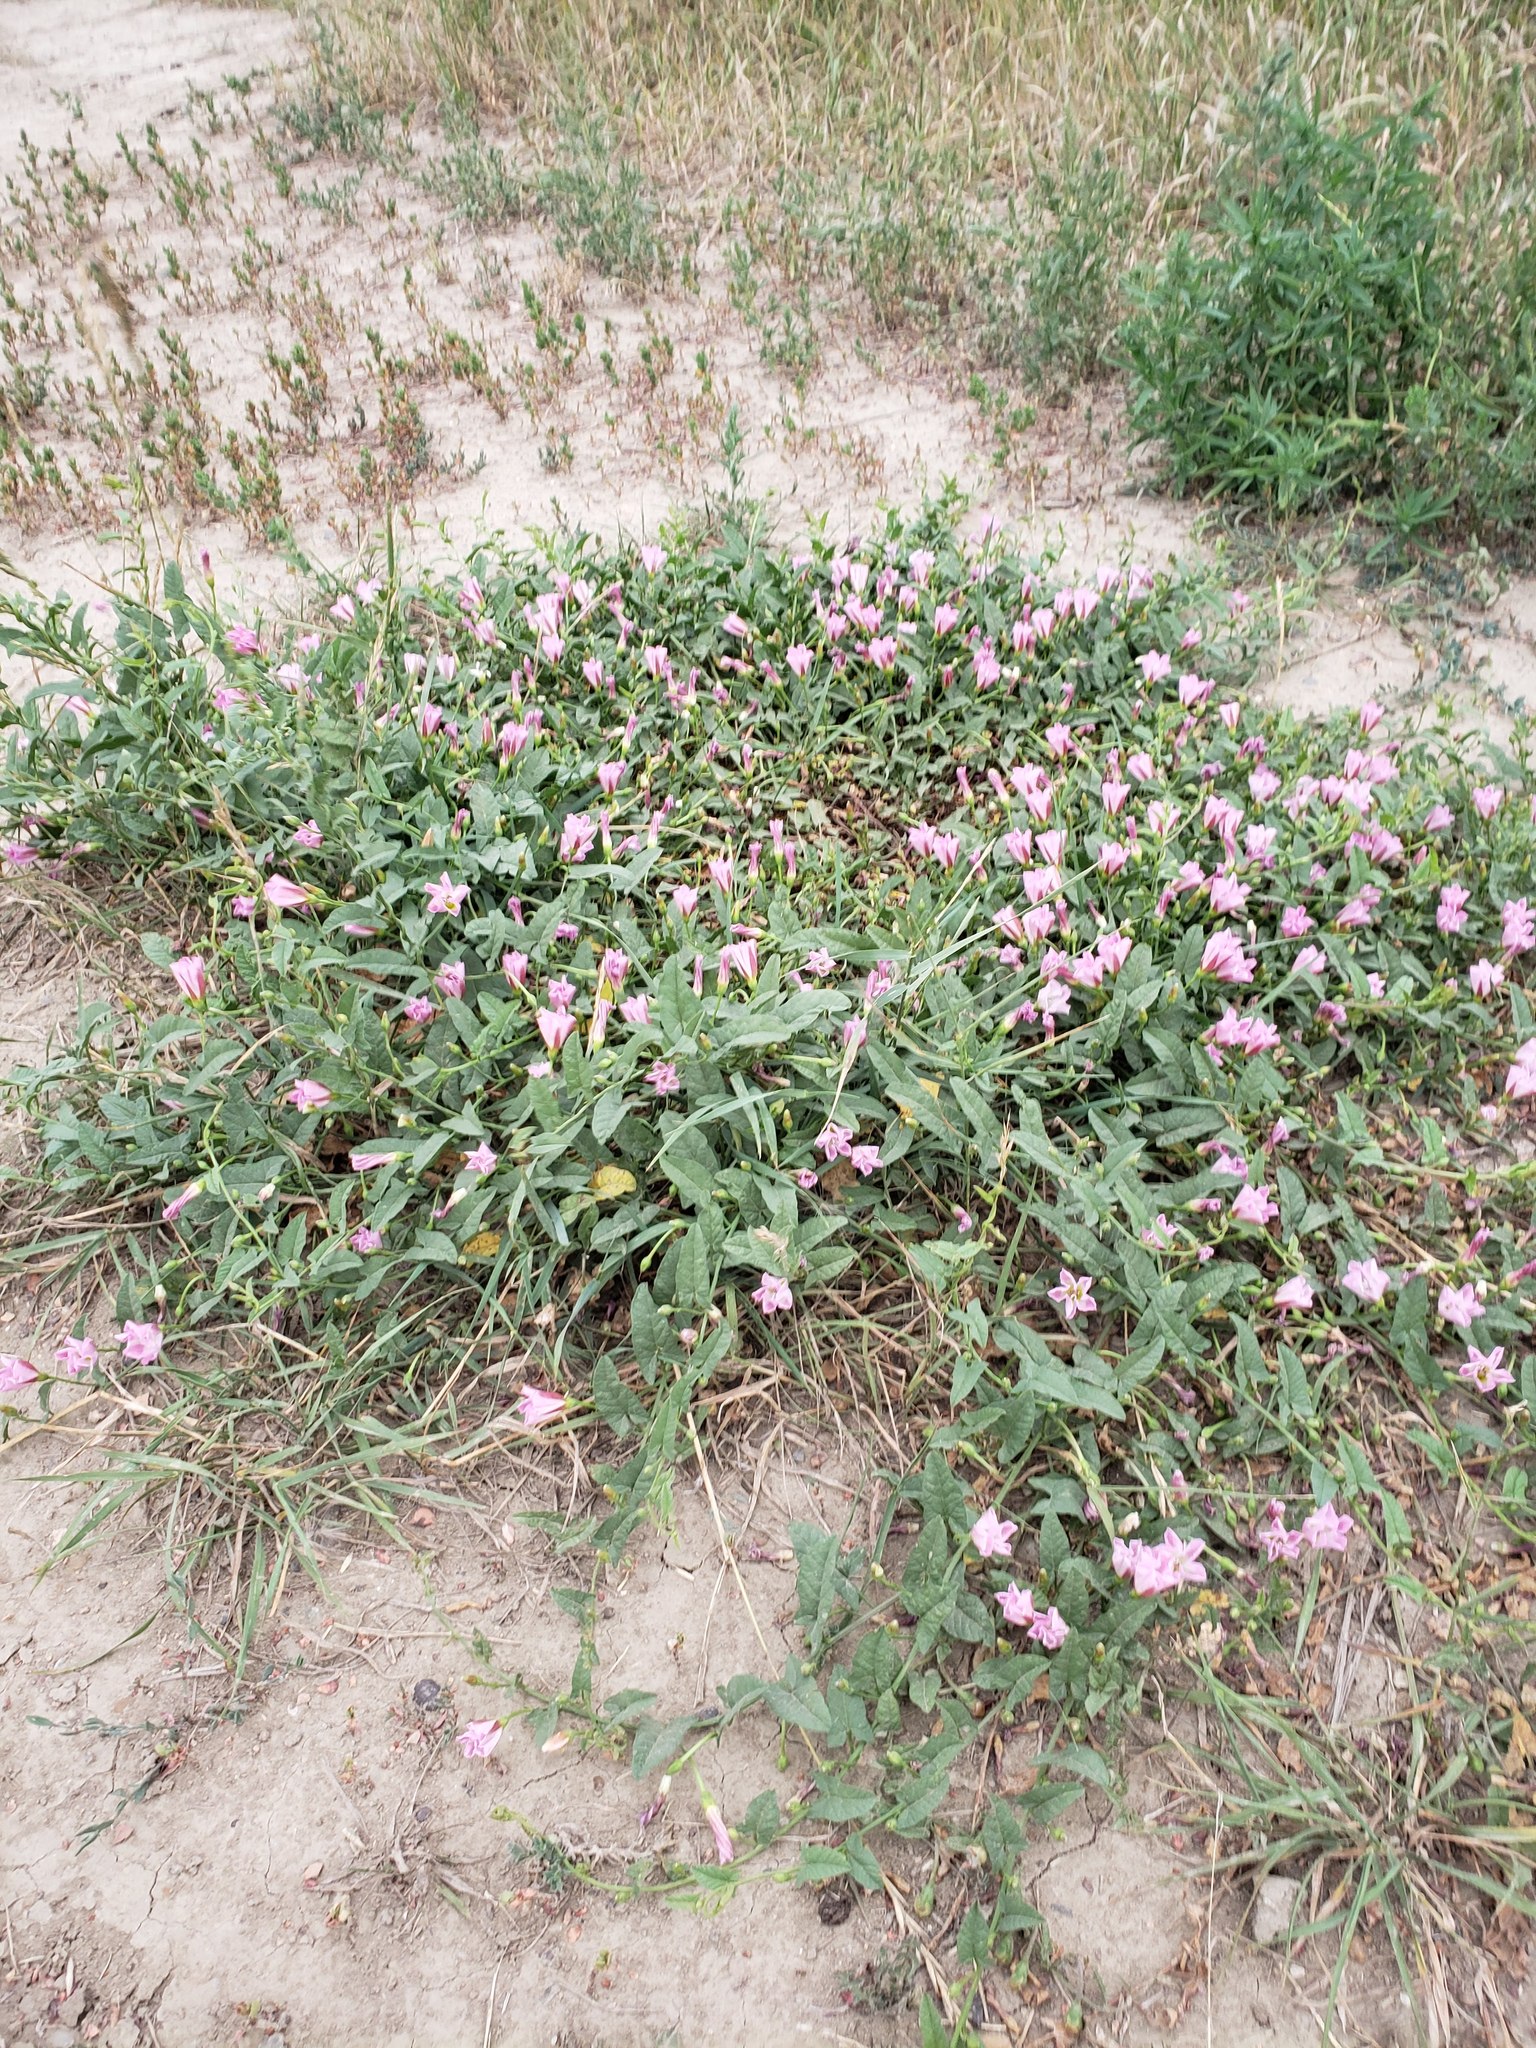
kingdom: Plantae
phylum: Tracheophyta
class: Magnoliopsida
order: Solanales
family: Convolvulaceae
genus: Convolvulus
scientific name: Convolvulus arvensis
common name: Field bindweed
